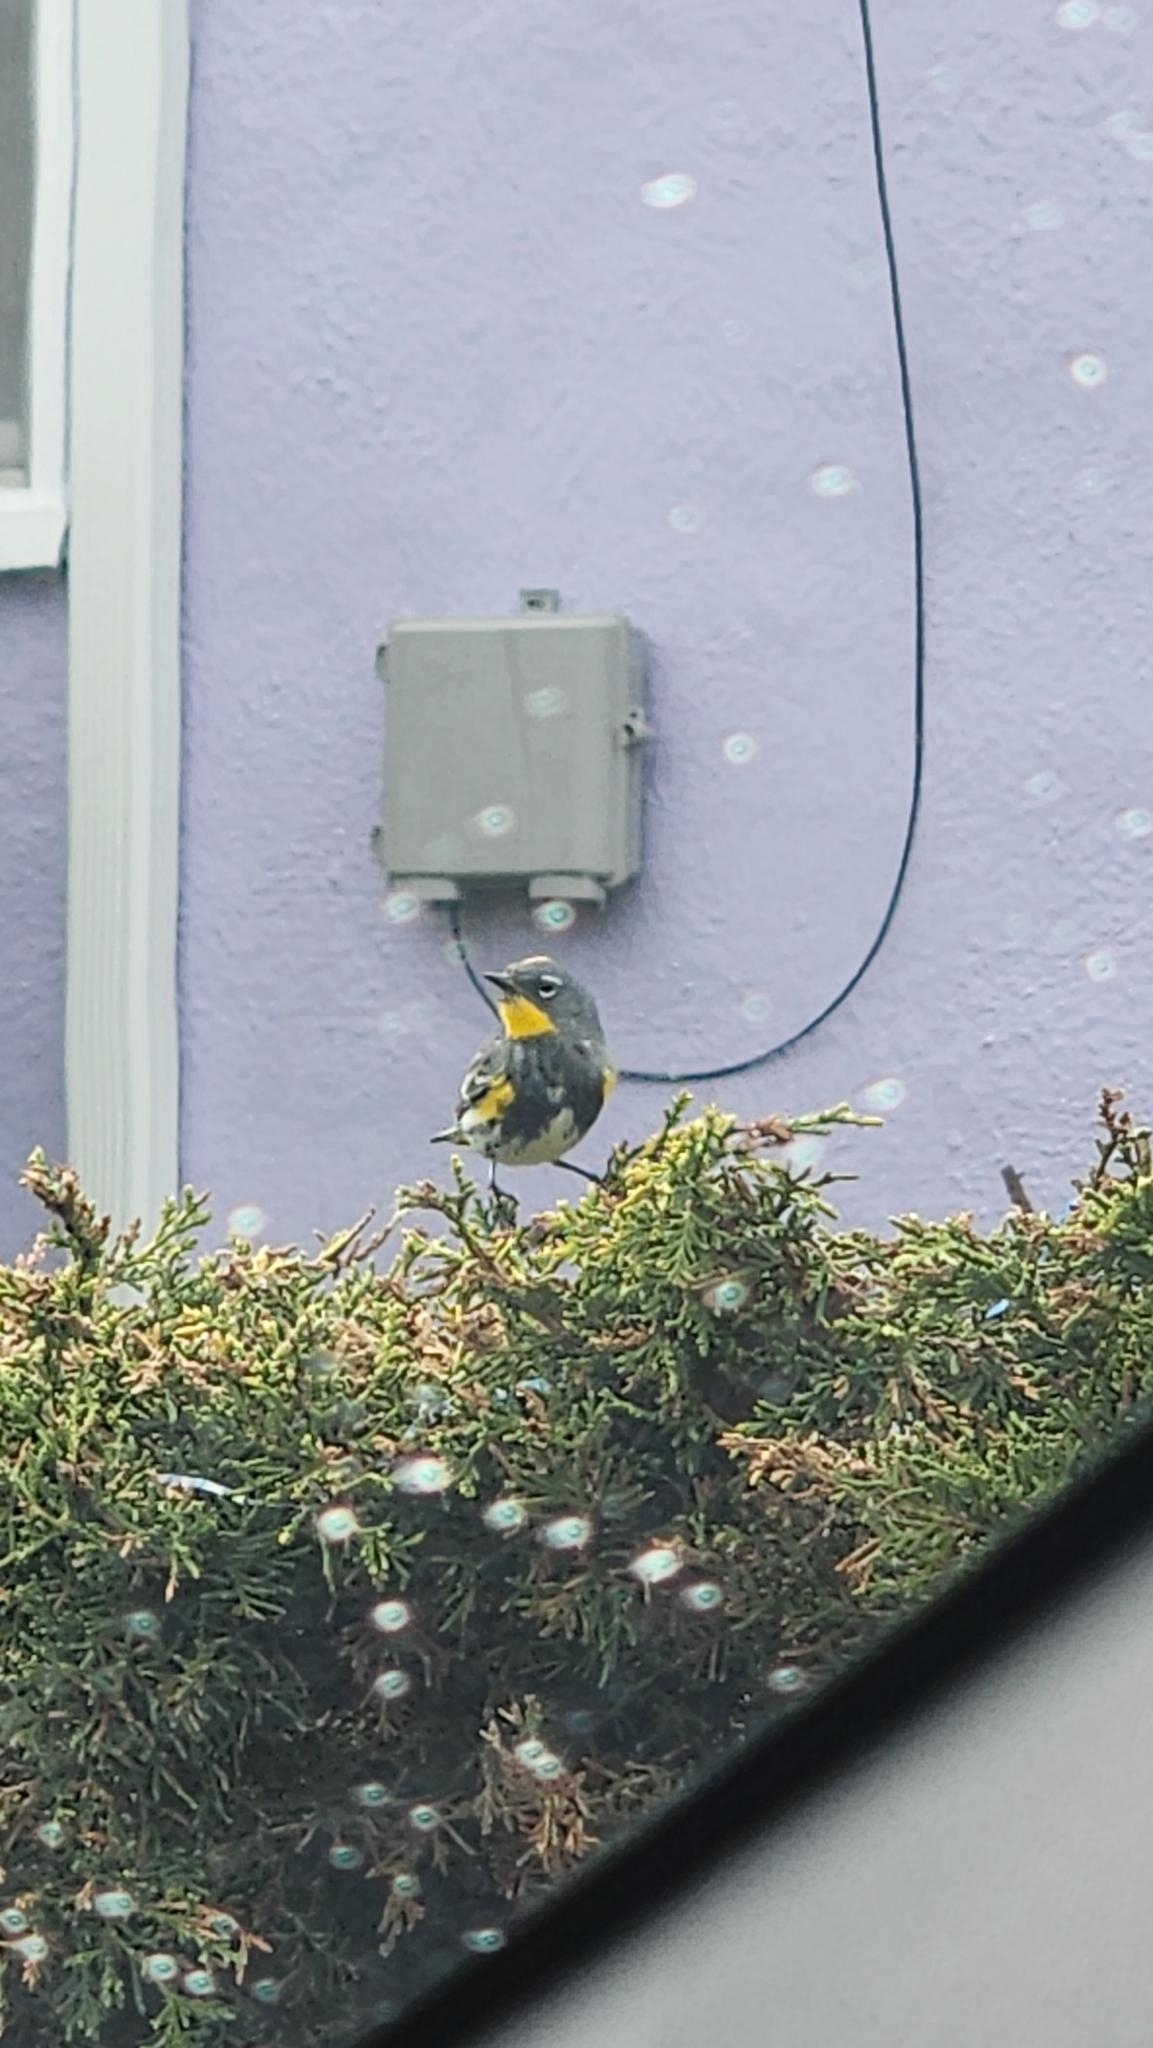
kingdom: Animalia
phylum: Chordata
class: Aves
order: Passeriformes
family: Parulidae
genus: Setophaga
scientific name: Setophaga coronata
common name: Myrtle warbler
